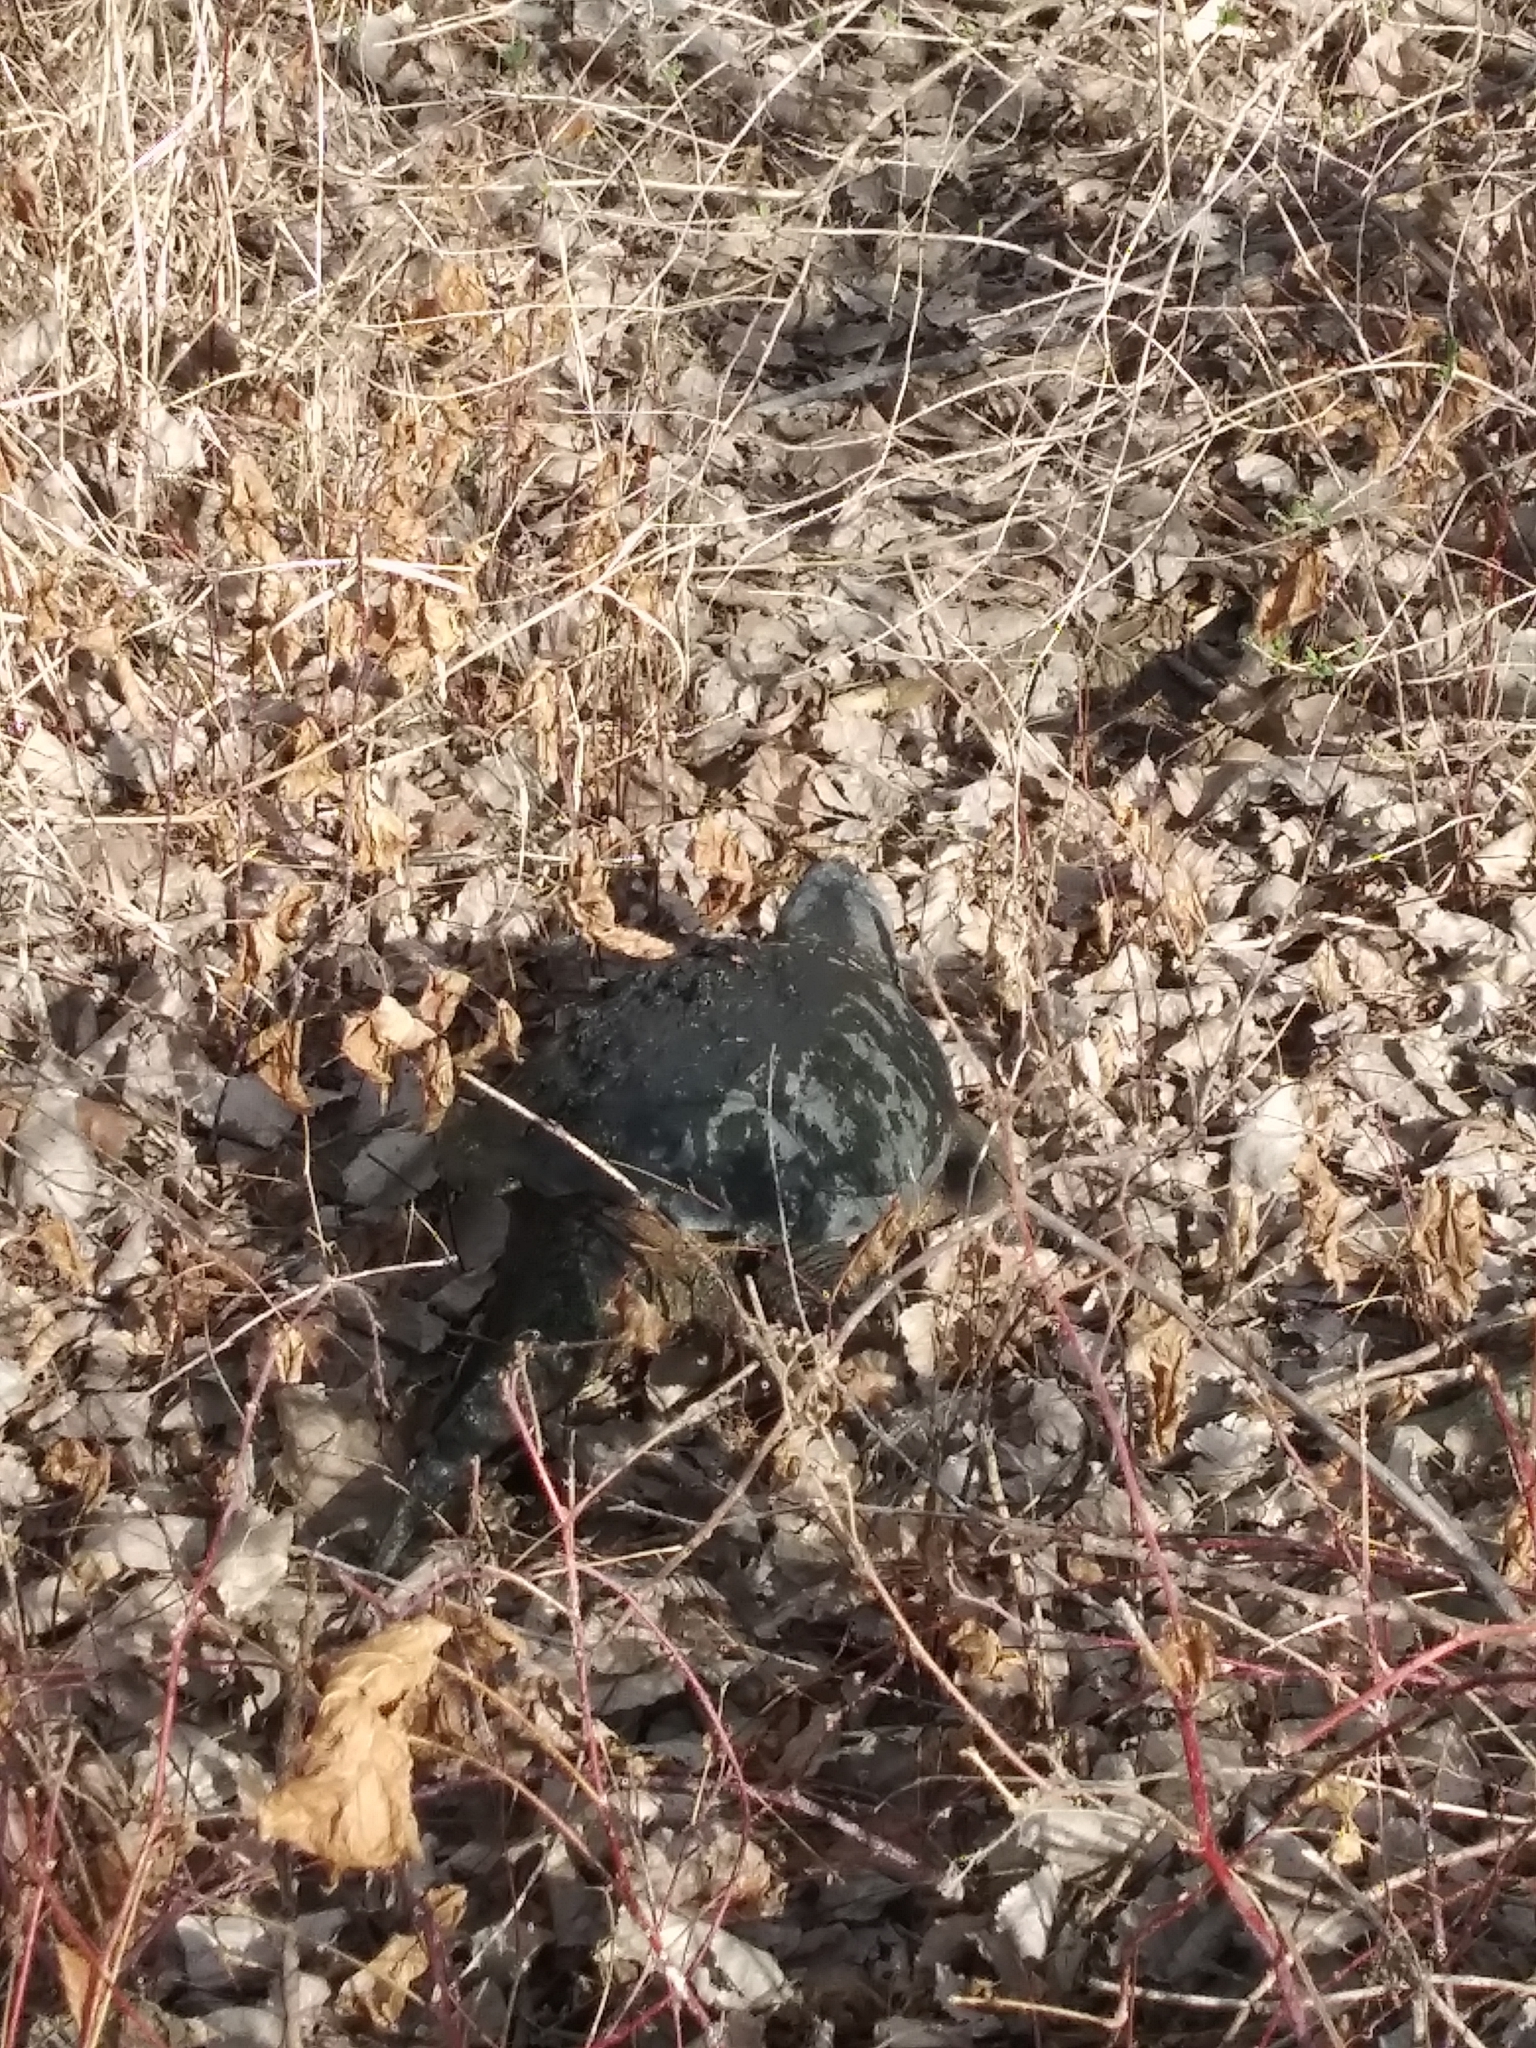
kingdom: Animalia
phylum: Chordata
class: Testudines
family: Chelydridae
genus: Chelydra
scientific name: Chelydra serpentina
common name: Common snapping turtle
